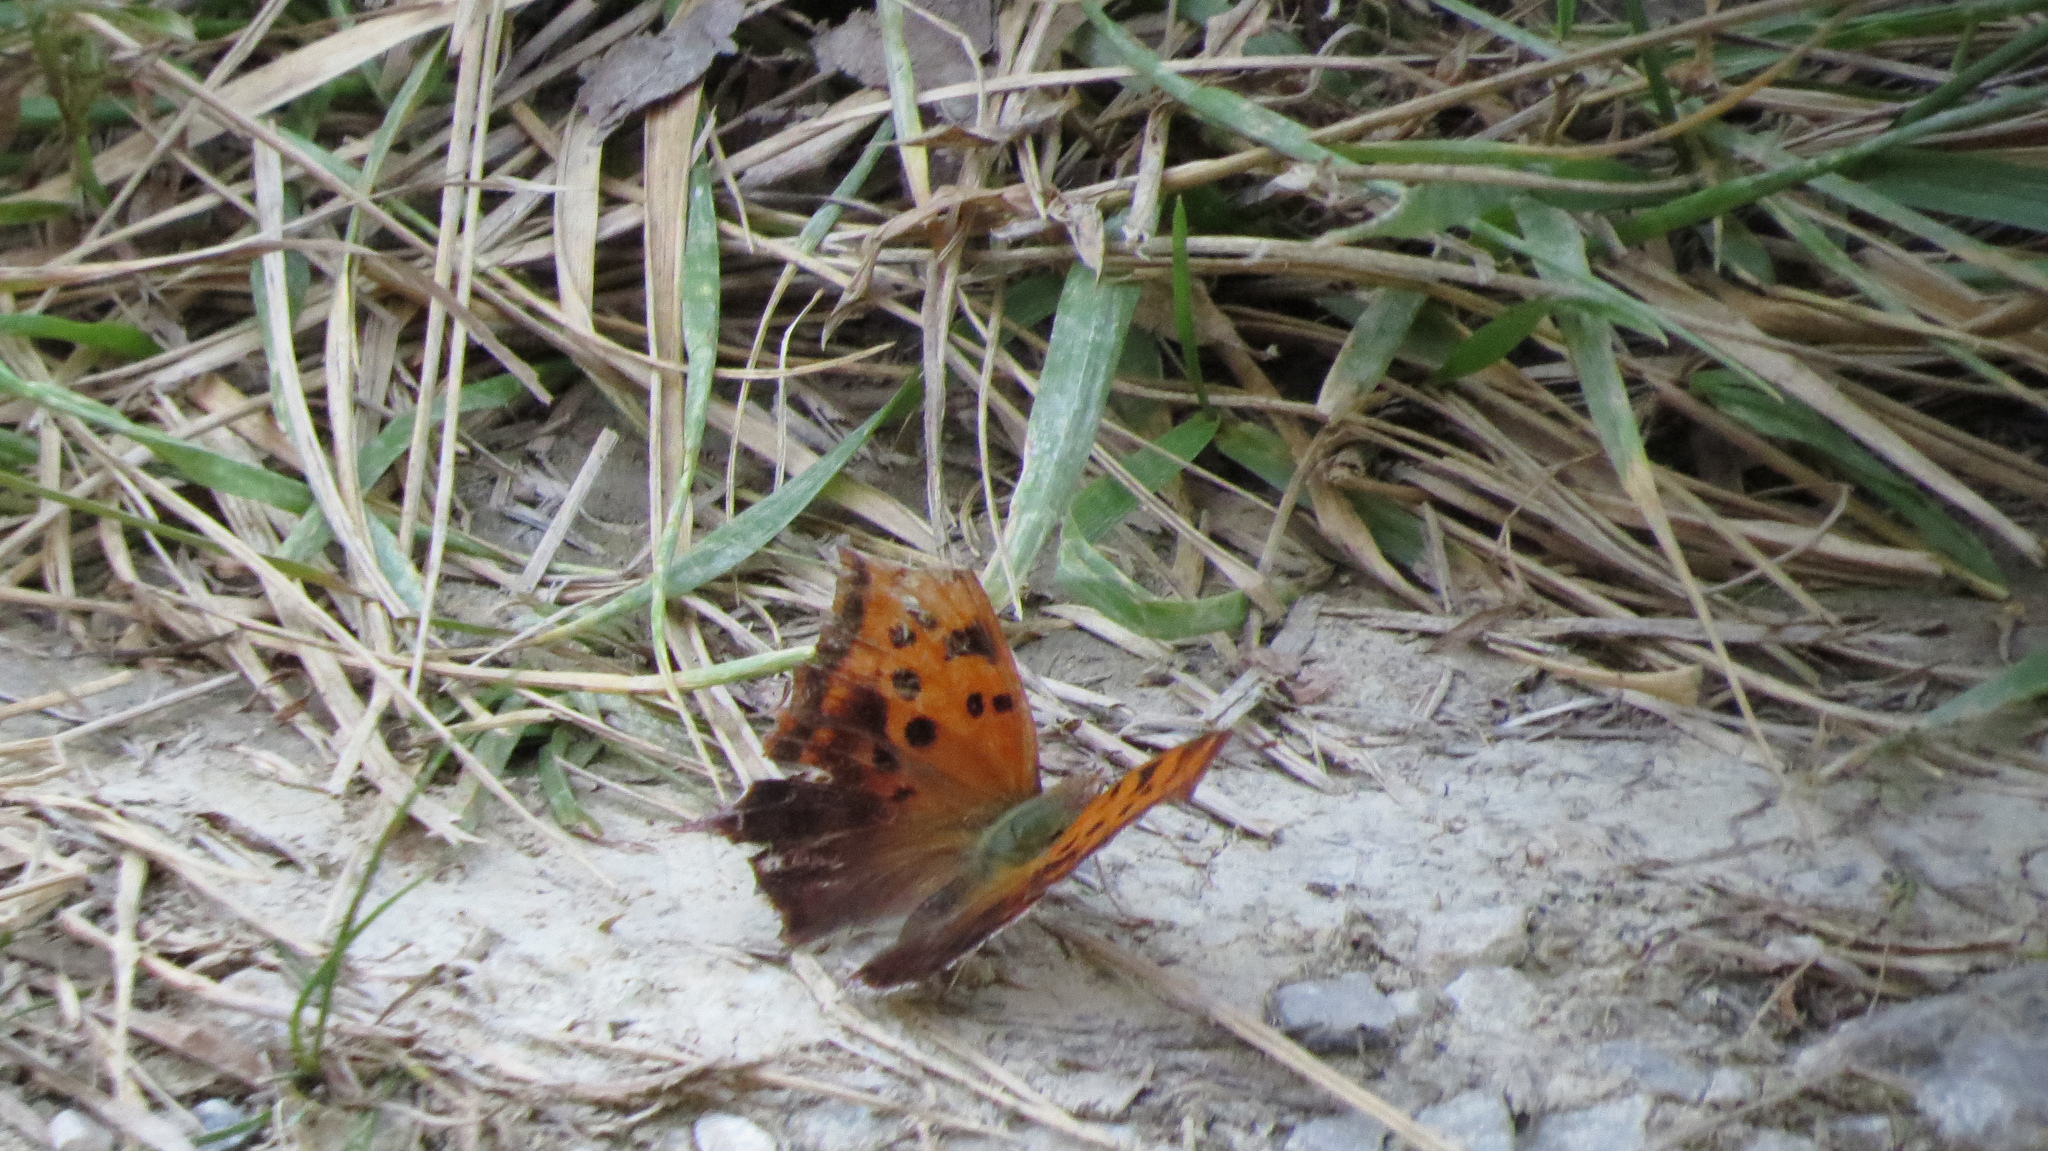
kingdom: Animalia
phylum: Arthropoda
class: Insecta
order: Lepidoptera
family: Nymphalidae
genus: Polygonia
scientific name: Polygonia interrogationis
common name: Question mark
